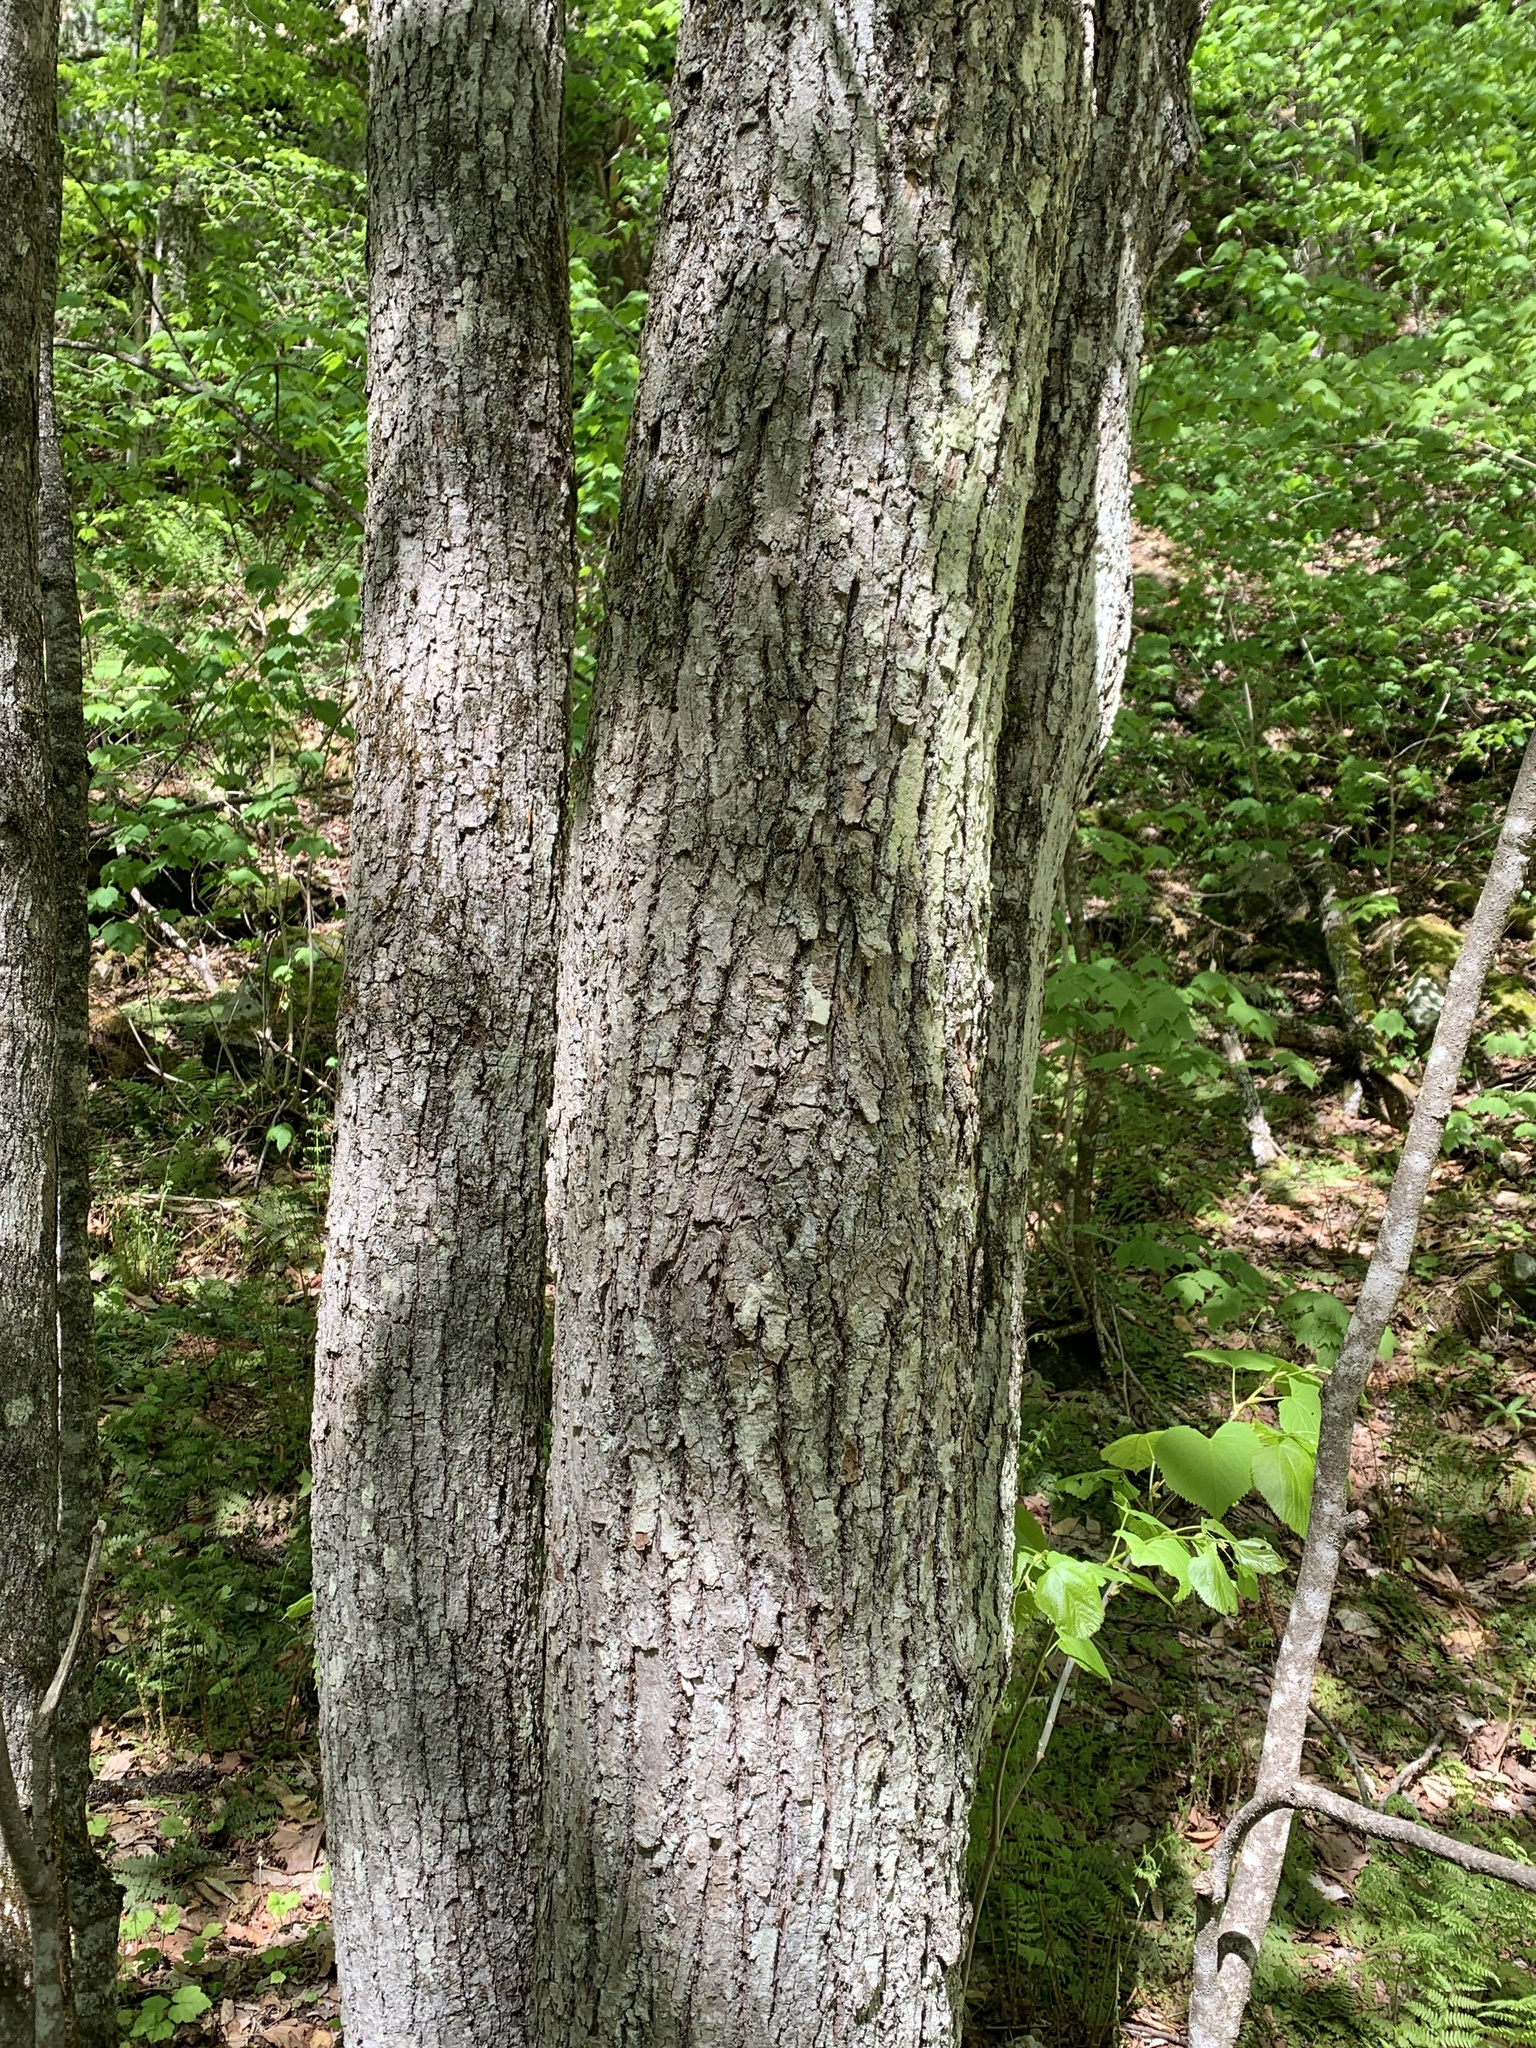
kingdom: Plantae
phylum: Tracheophyta
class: Magnoliopsida
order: Malvales
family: Malvaceae
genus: Tilia
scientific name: Tilia americana
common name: Basswood
